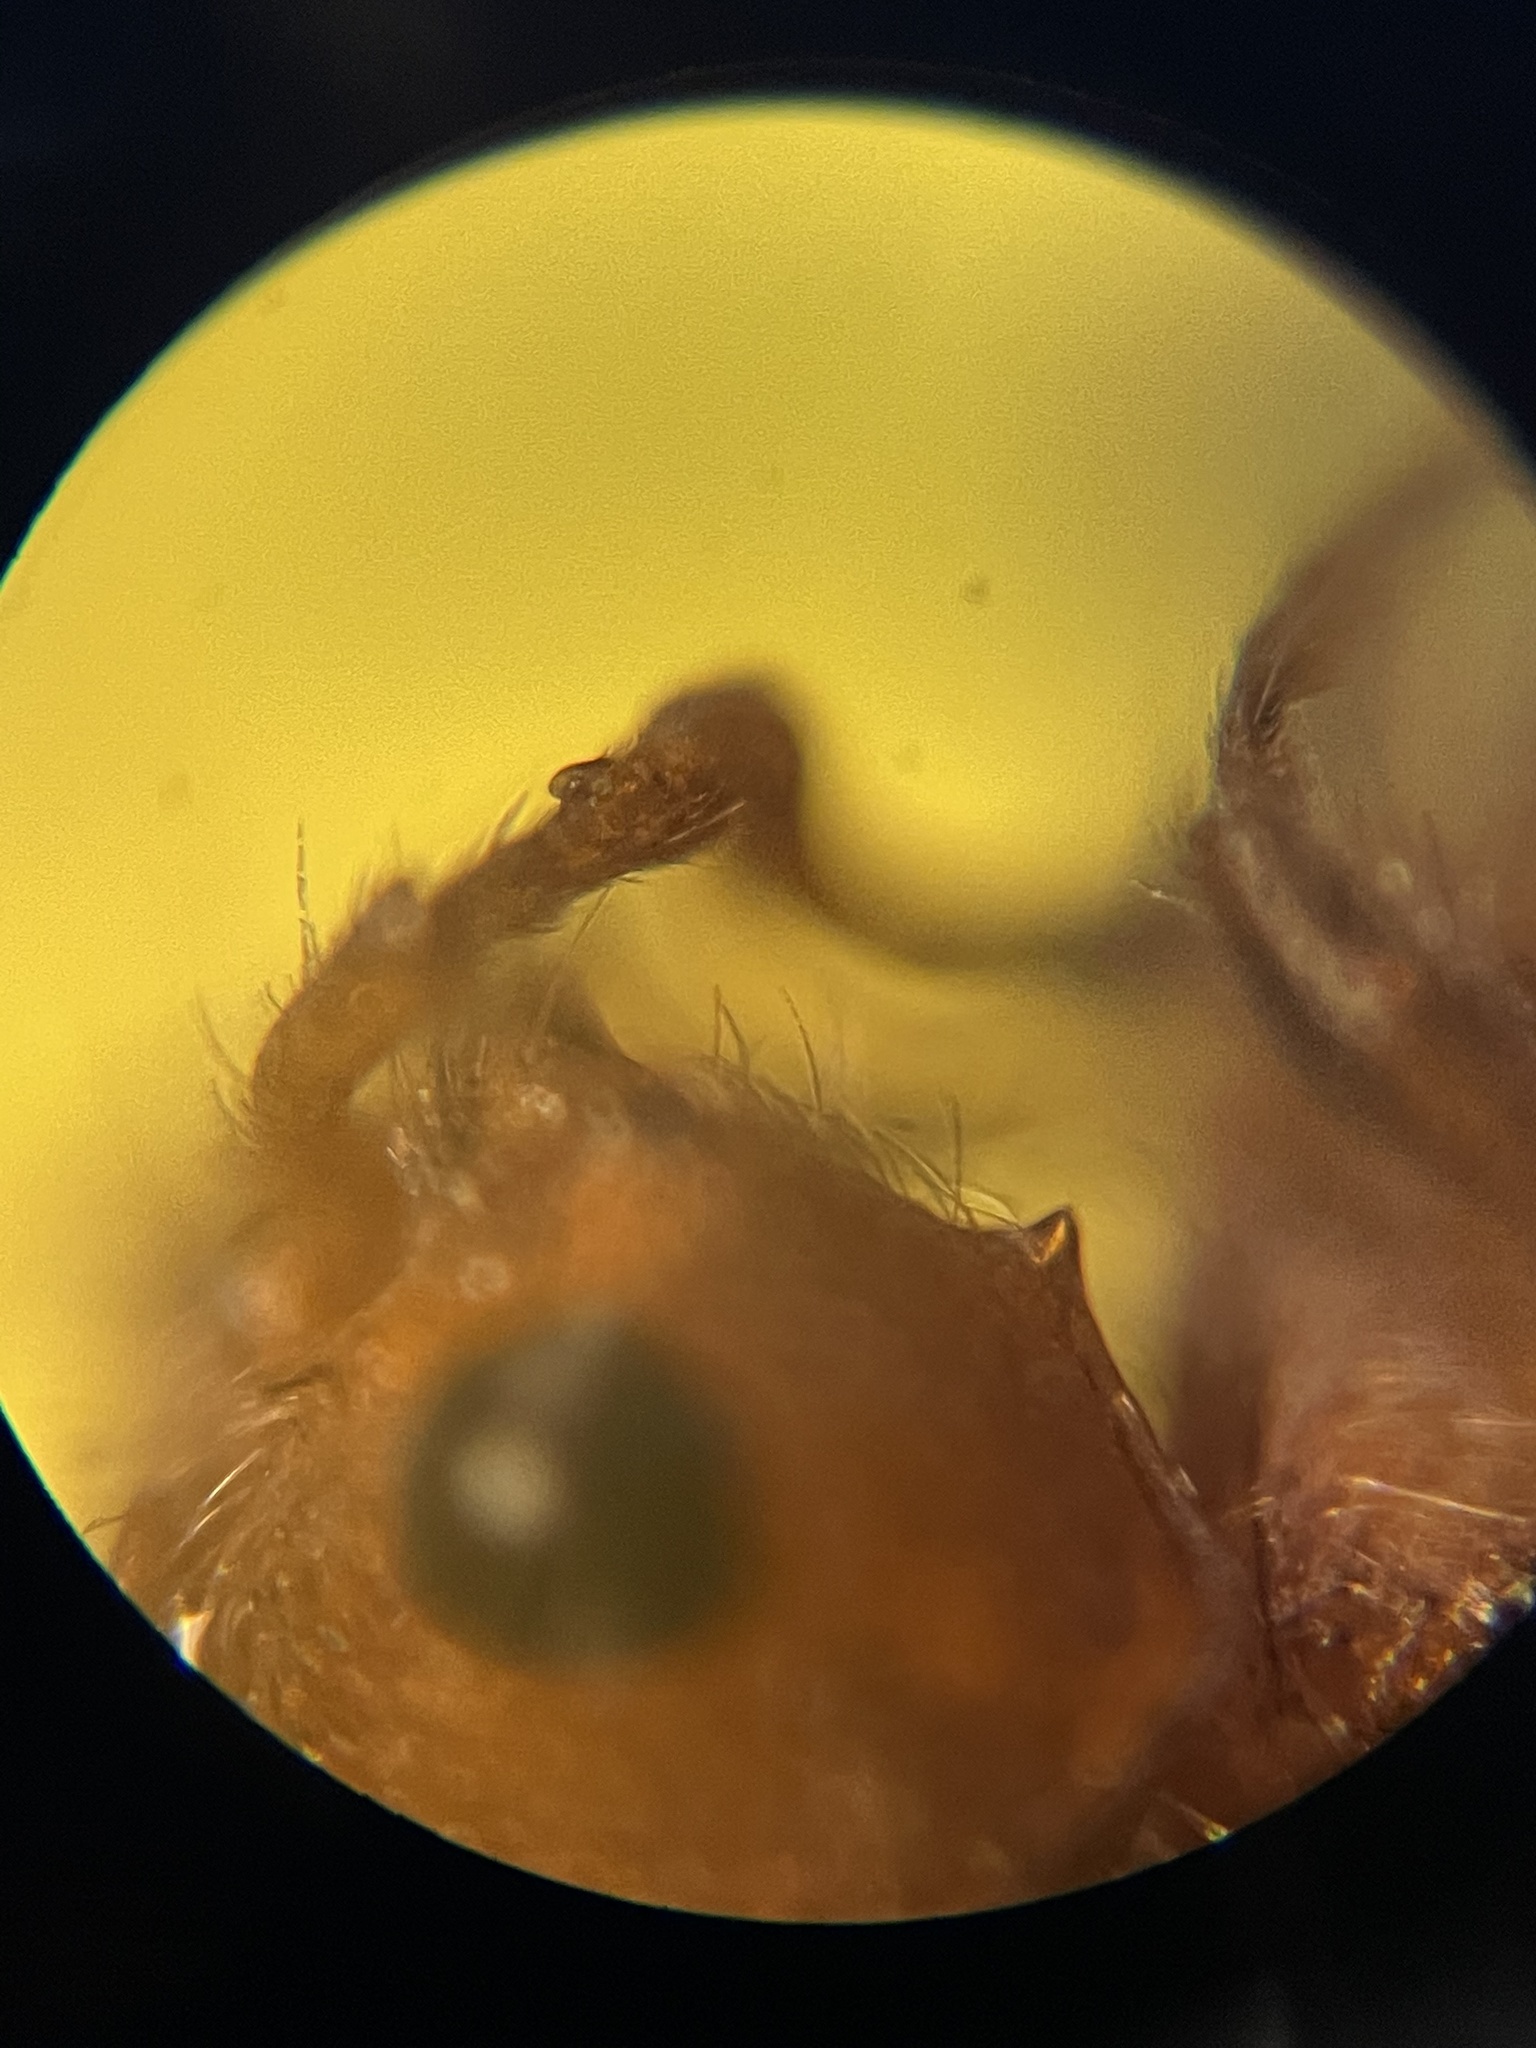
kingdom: Animalia
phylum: Arthropoda
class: Insecta
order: Hymenoptera
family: Mutillidae
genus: Pseudomethoca
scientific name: Pseudomethoca
